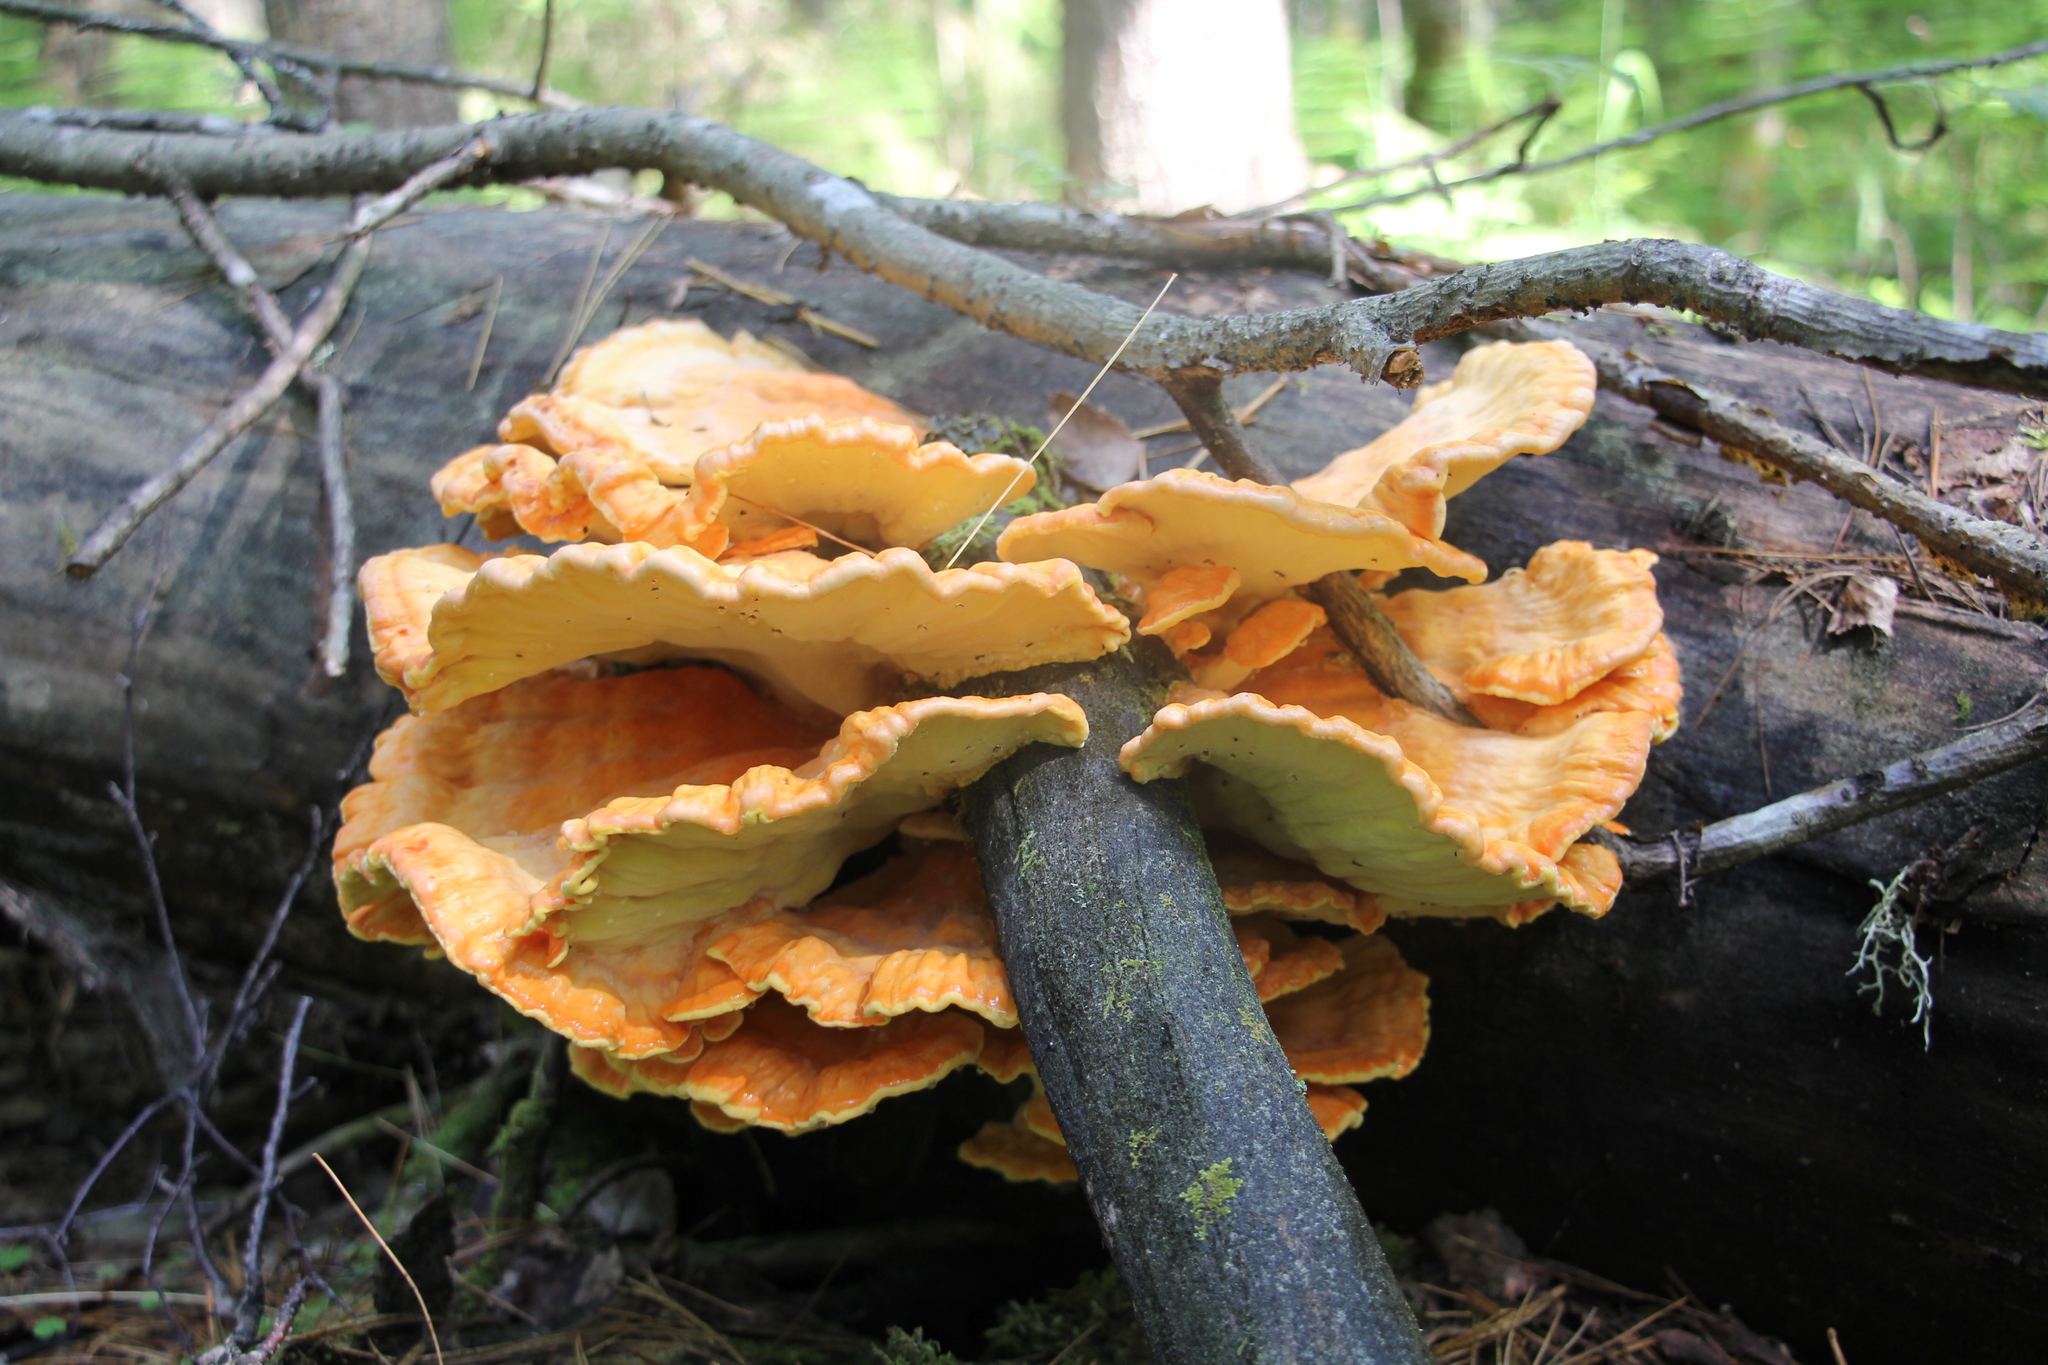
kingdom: Fungi
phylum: Basidiomycota
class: Agaricomycetes
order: Polyporales
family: Laetiporaceae
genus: Laetiporus
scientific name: Laetiporus sulphureus
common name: Chicken of the woods
